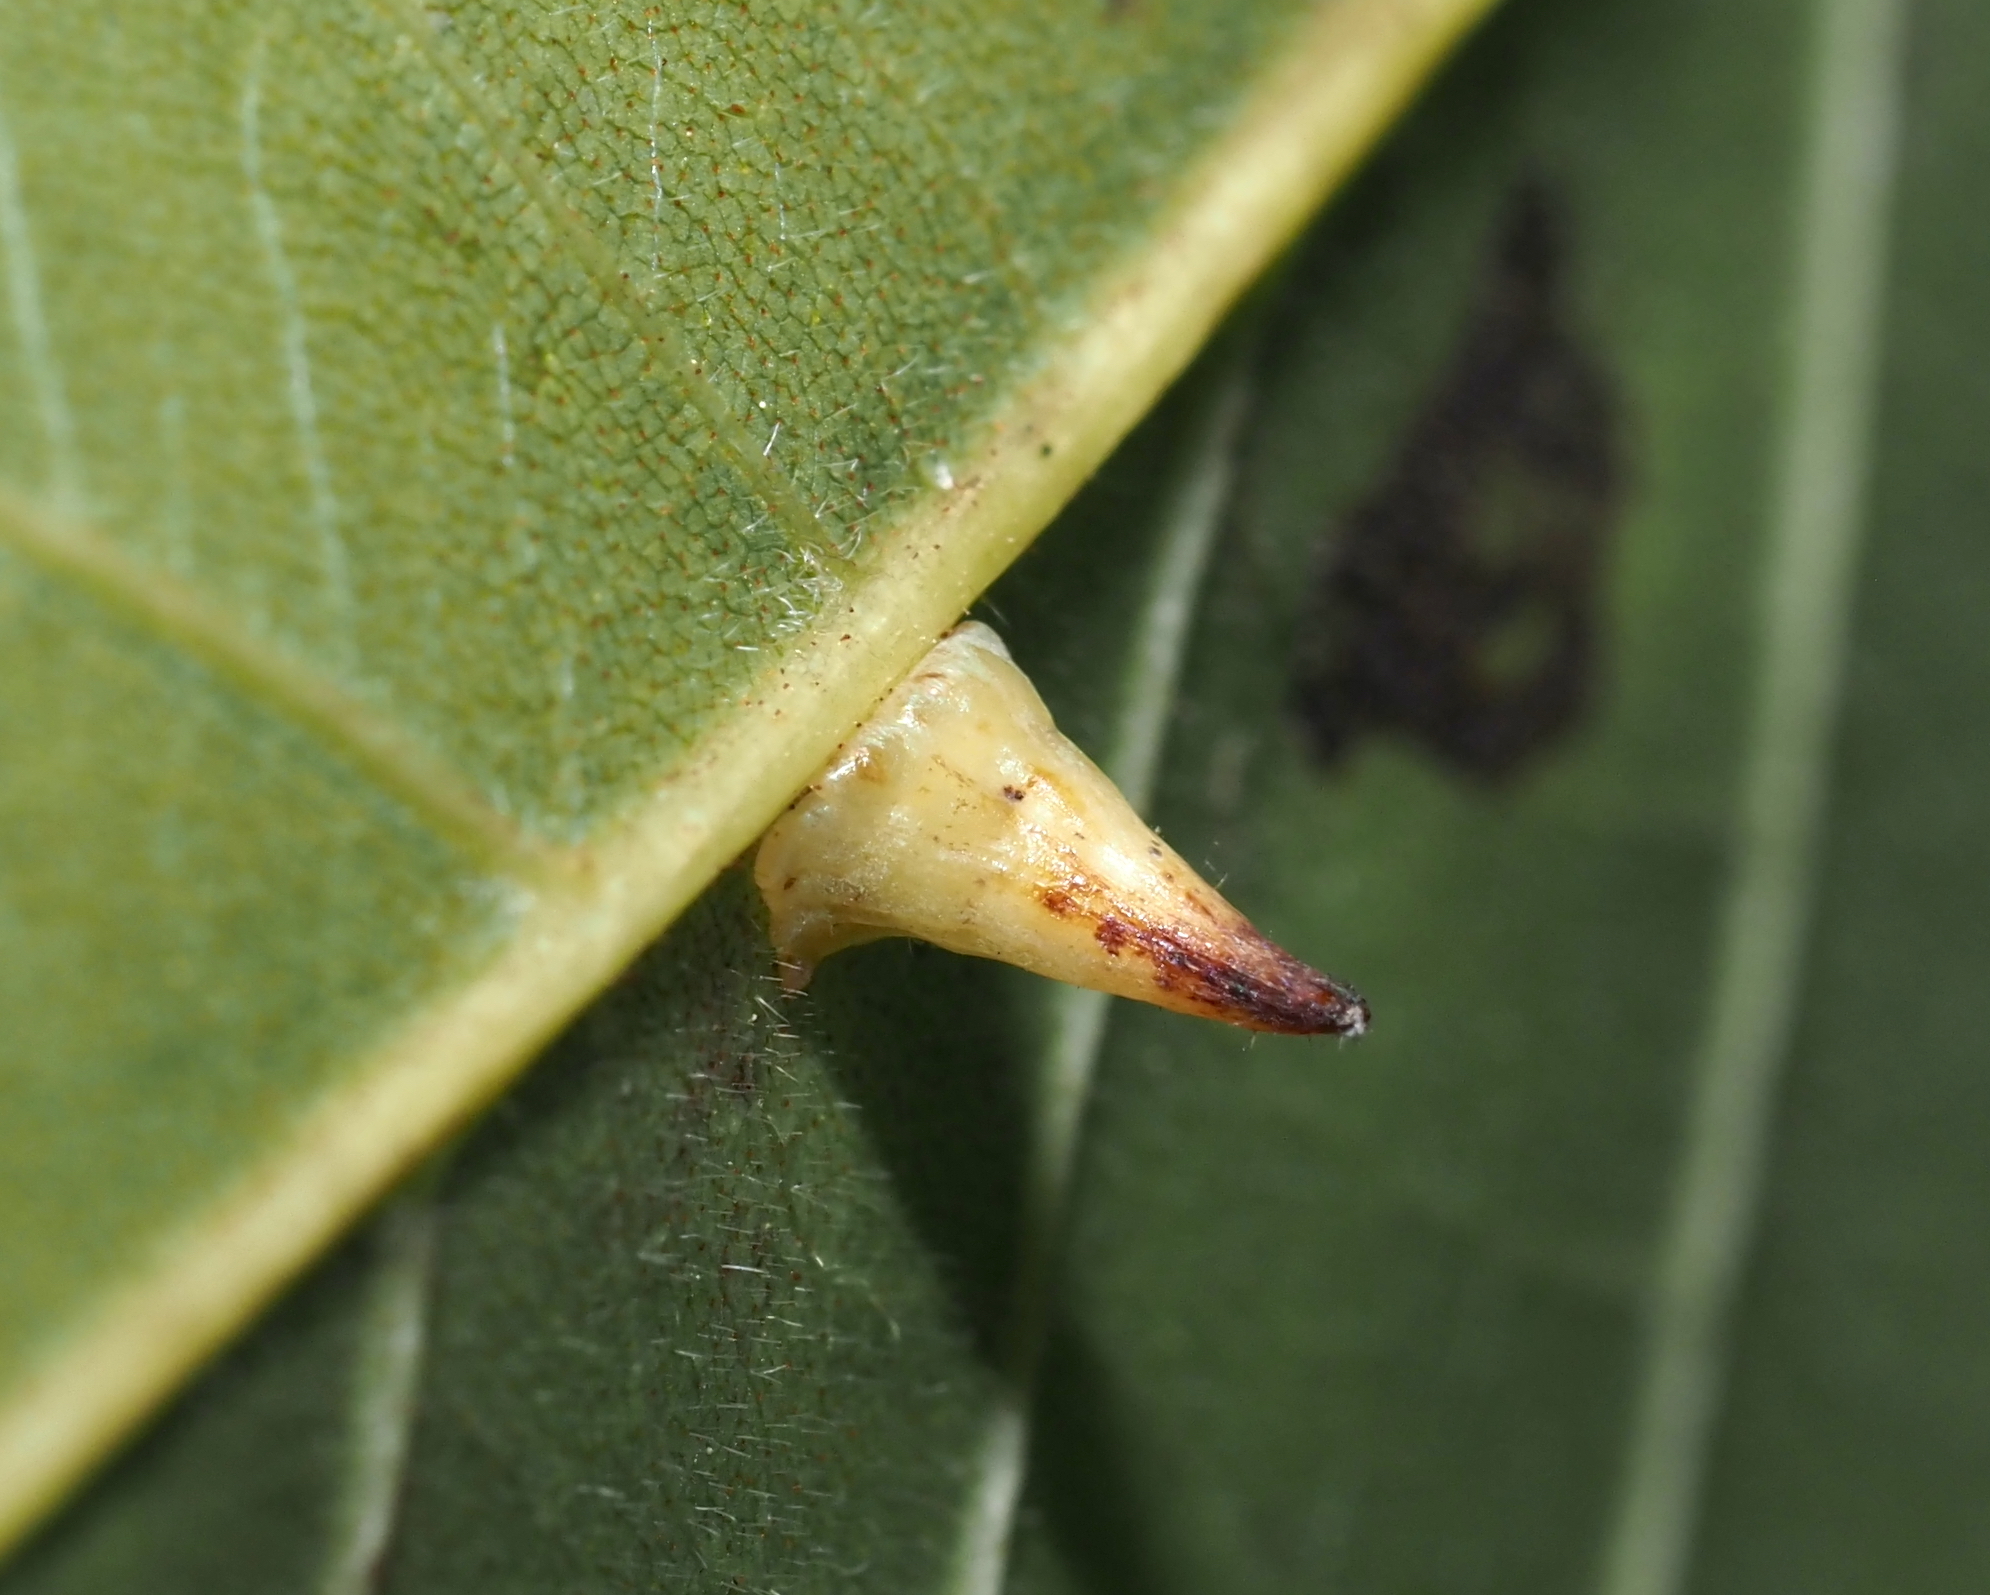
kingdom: Animalia
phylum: Arthropoda
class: Insecta
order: Diptera
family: Cecidomyiidae
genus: Caryomyia
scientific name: Caryomyia stellata
